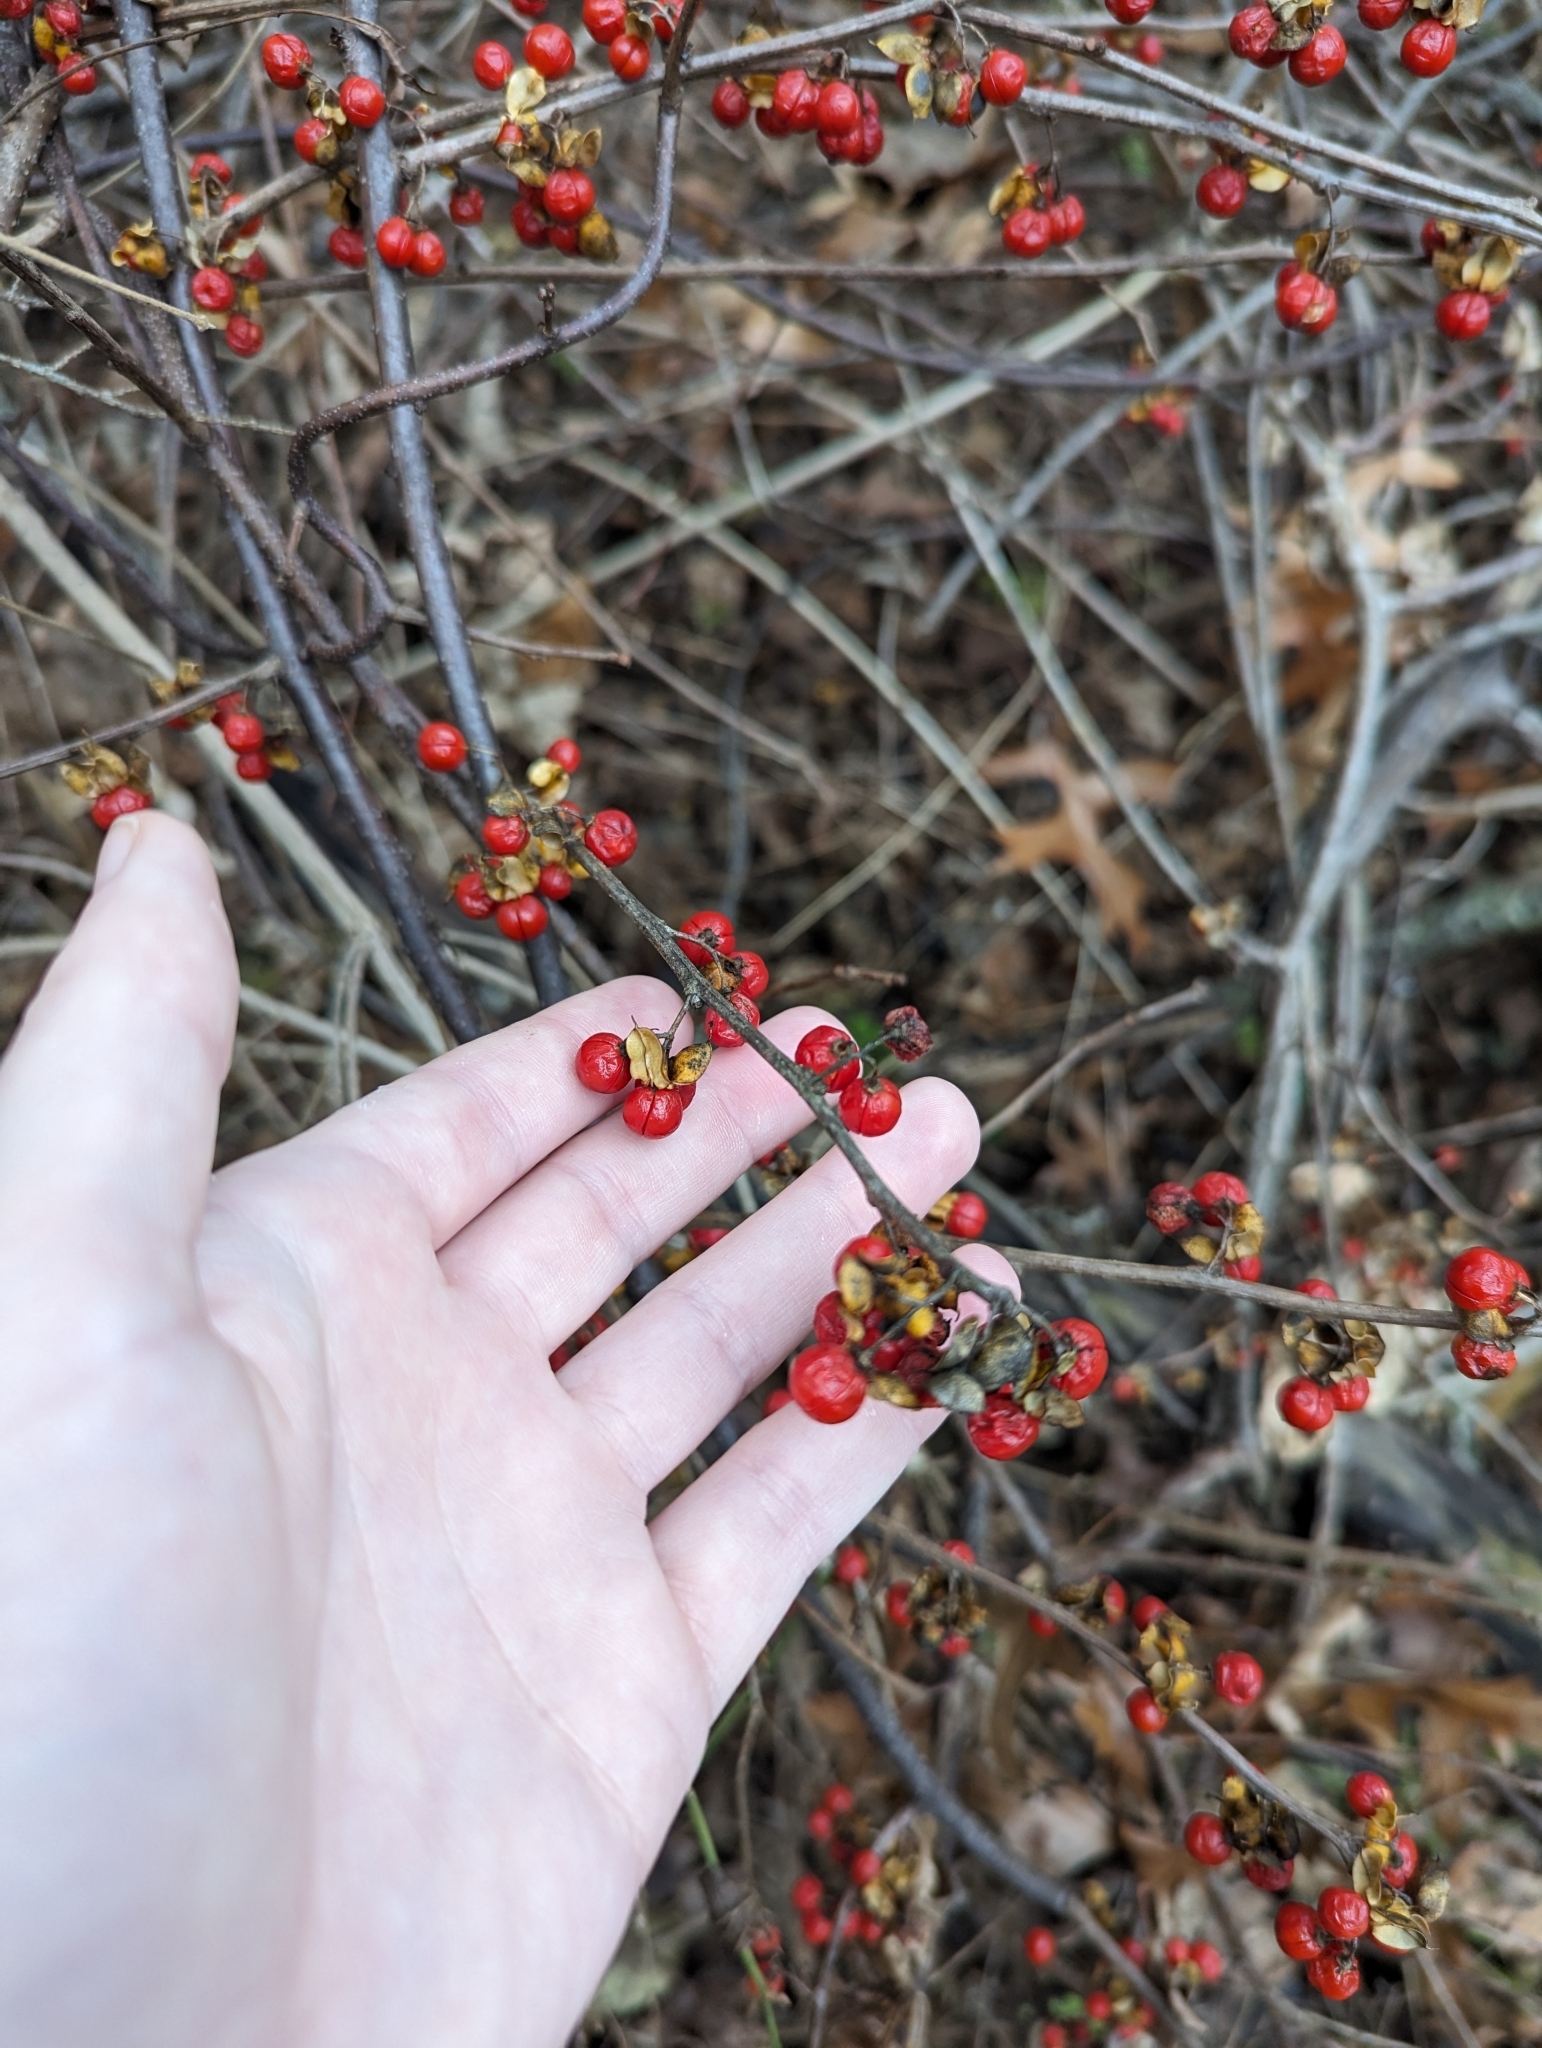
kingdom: Plantae
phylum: Tracheophyta
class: Magnoliopsida
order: Celastrales
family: Celastraceae
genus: Celastrus
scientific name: Celastrus orbiculatus
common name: Oriental bittersweet
